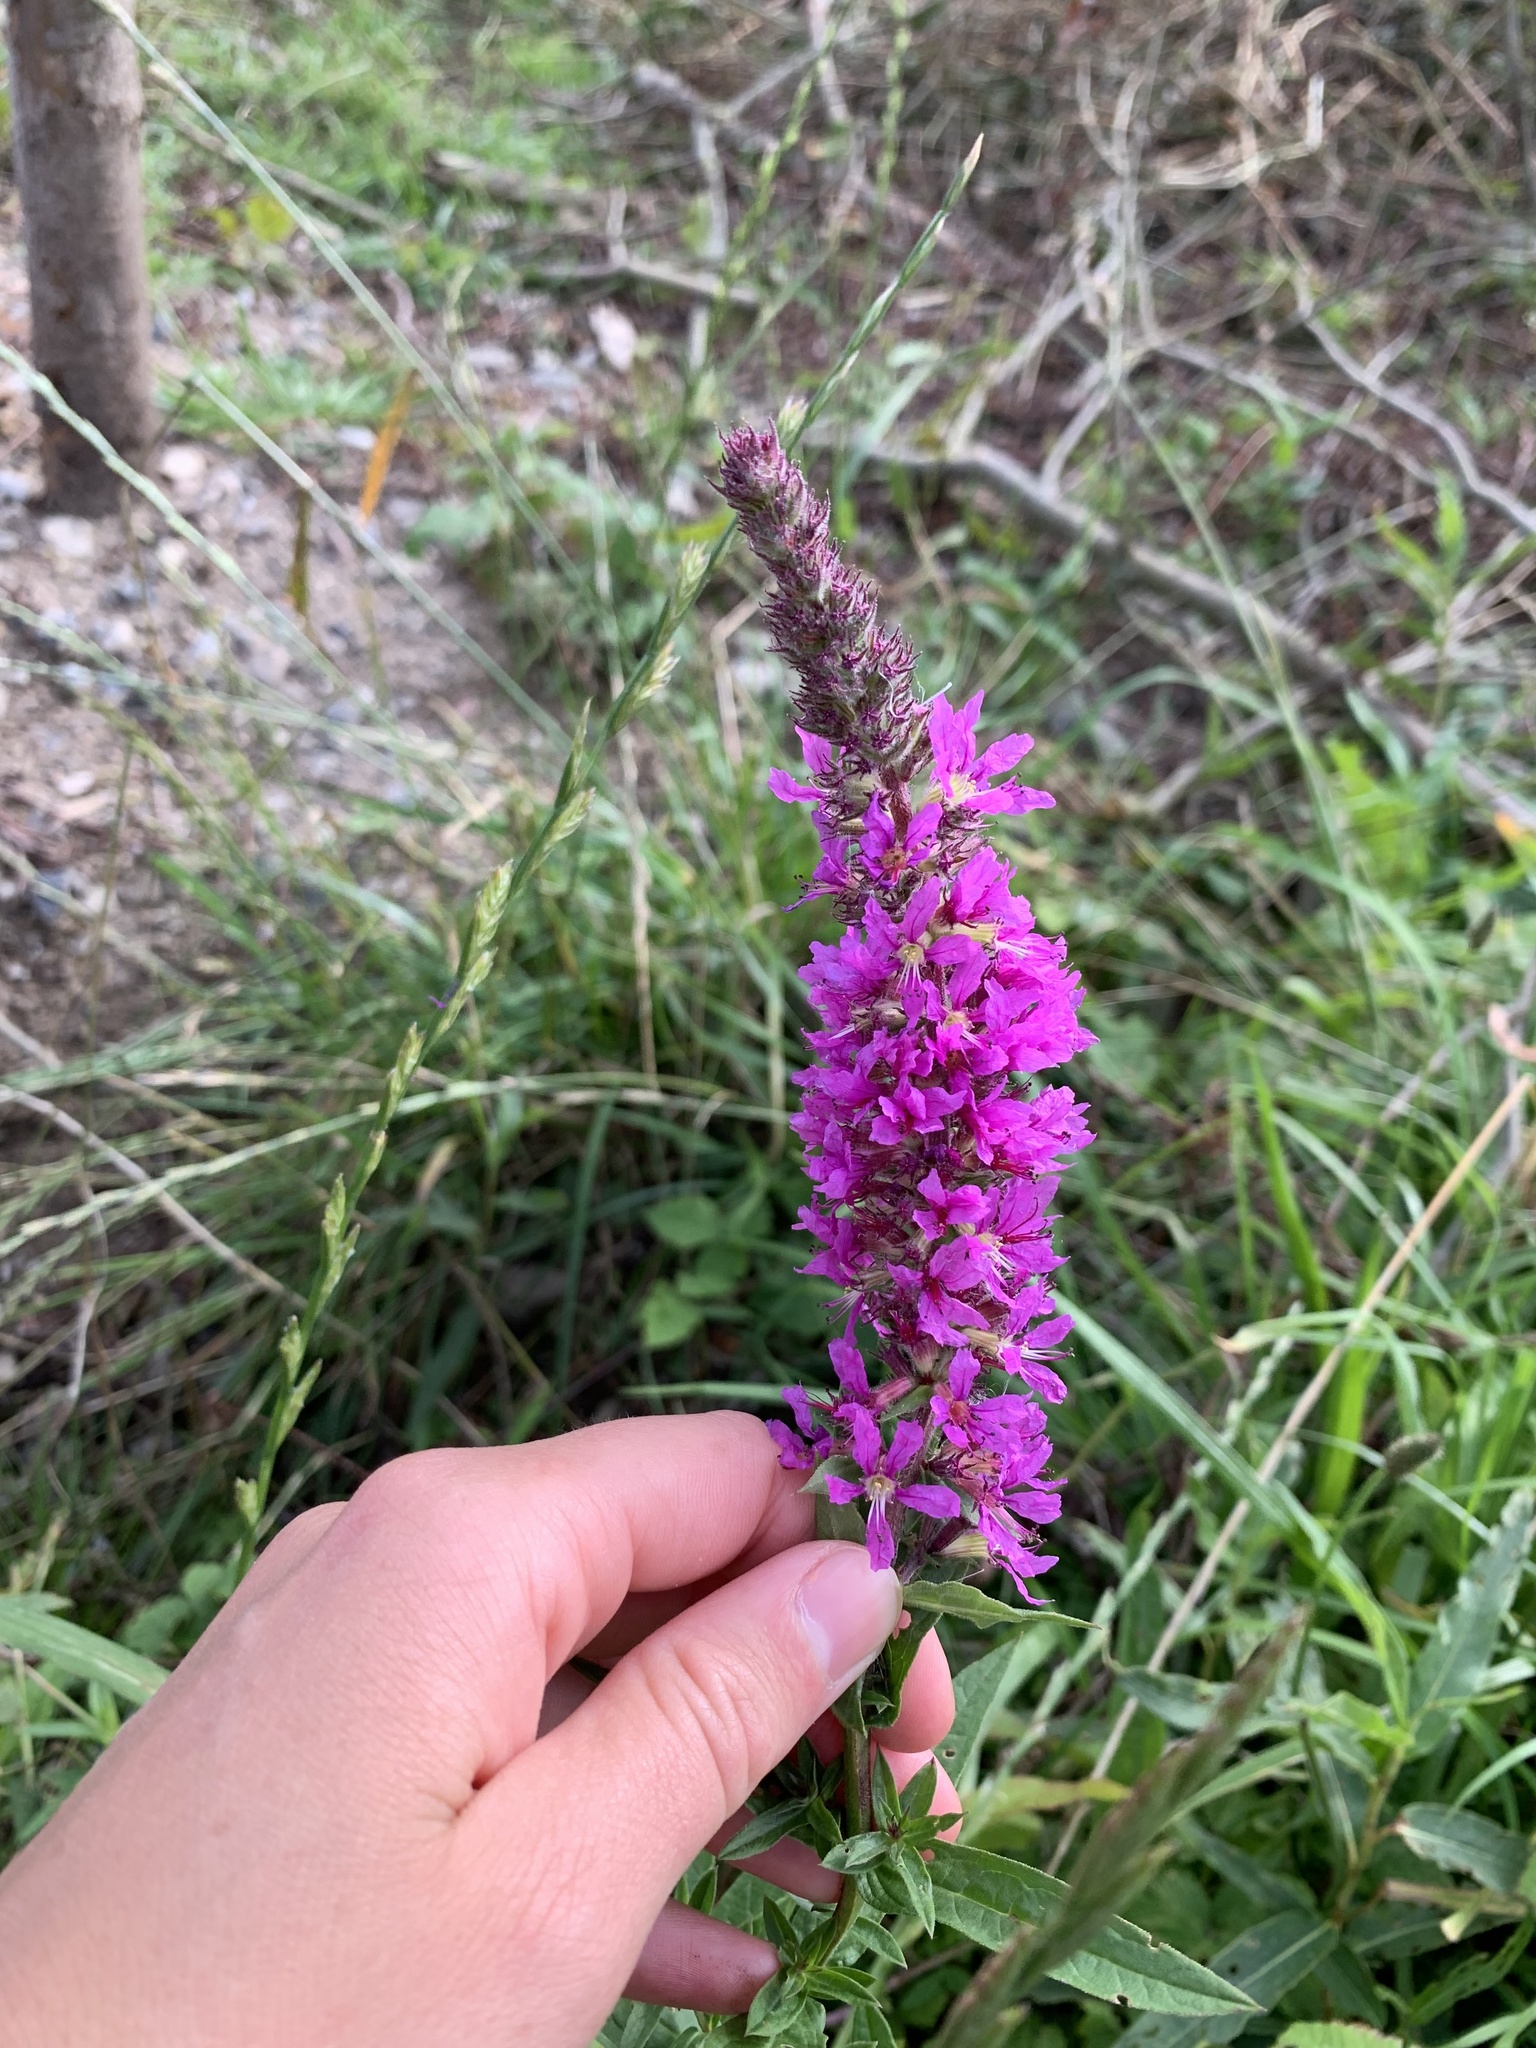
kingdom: Plantae
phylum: Tracheophyta
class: Magnoliopsida
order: Myrtales
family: Lythraceae
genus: Lythrum
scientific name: Lythrum salicaria
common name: Purple loosestrife
